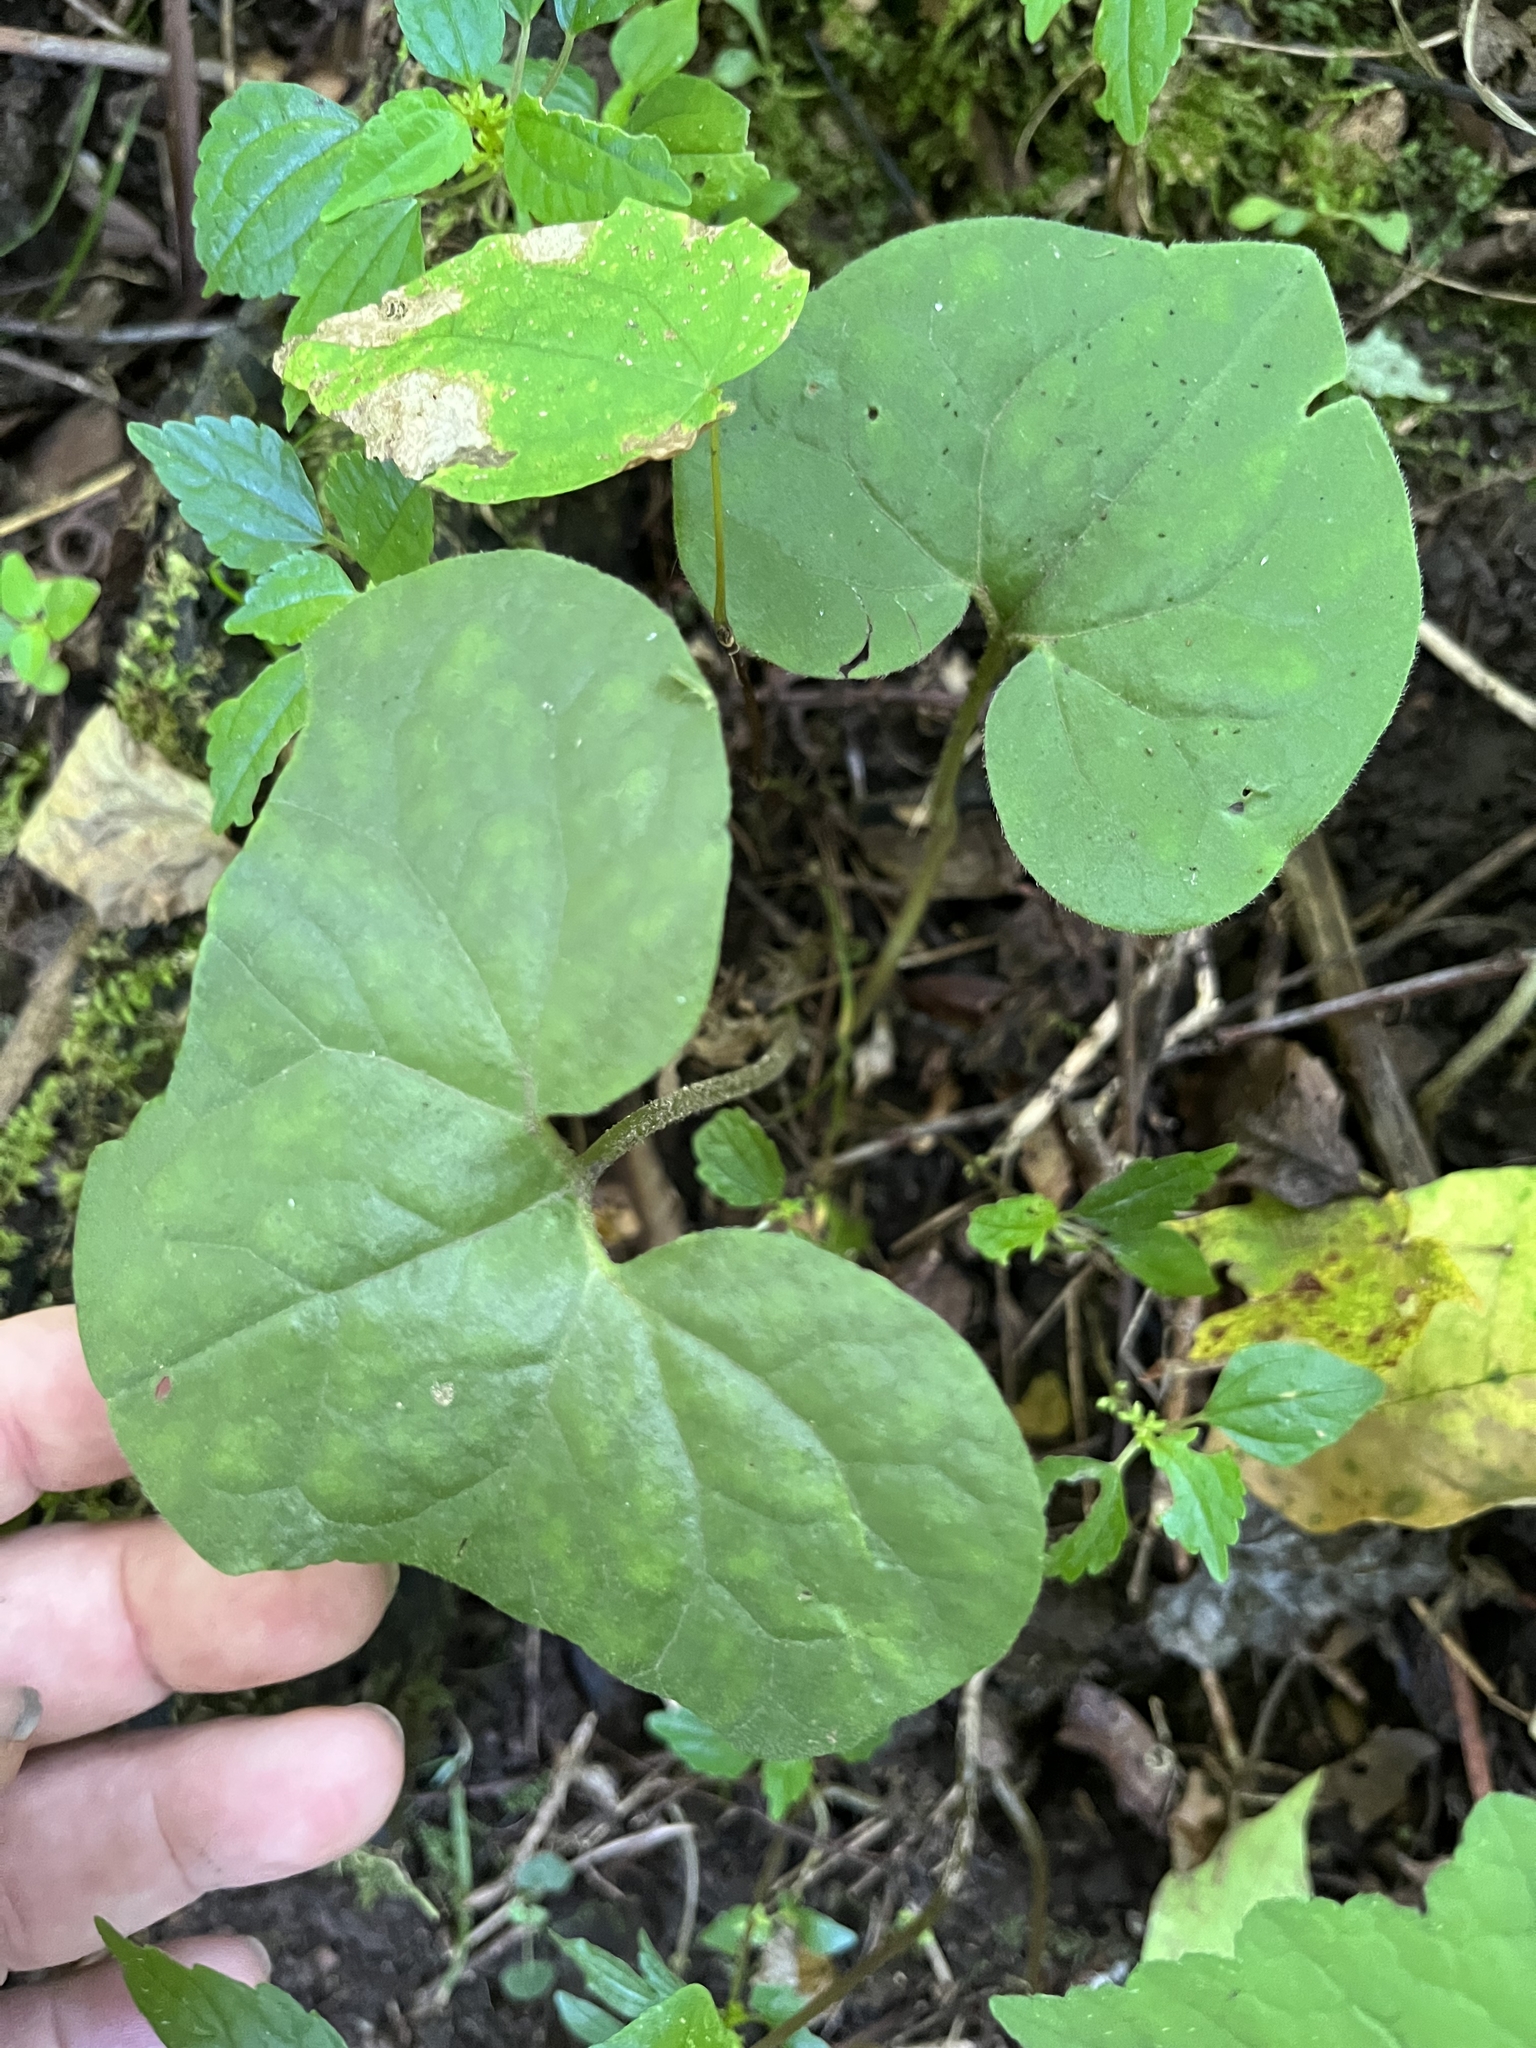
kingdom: Plantae
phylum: Tracheophyta
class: Magnoliopsida
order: Piperales
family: Aristolochiaceae
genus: Asarum
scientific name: Asarum canadense
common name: Wild ginger
